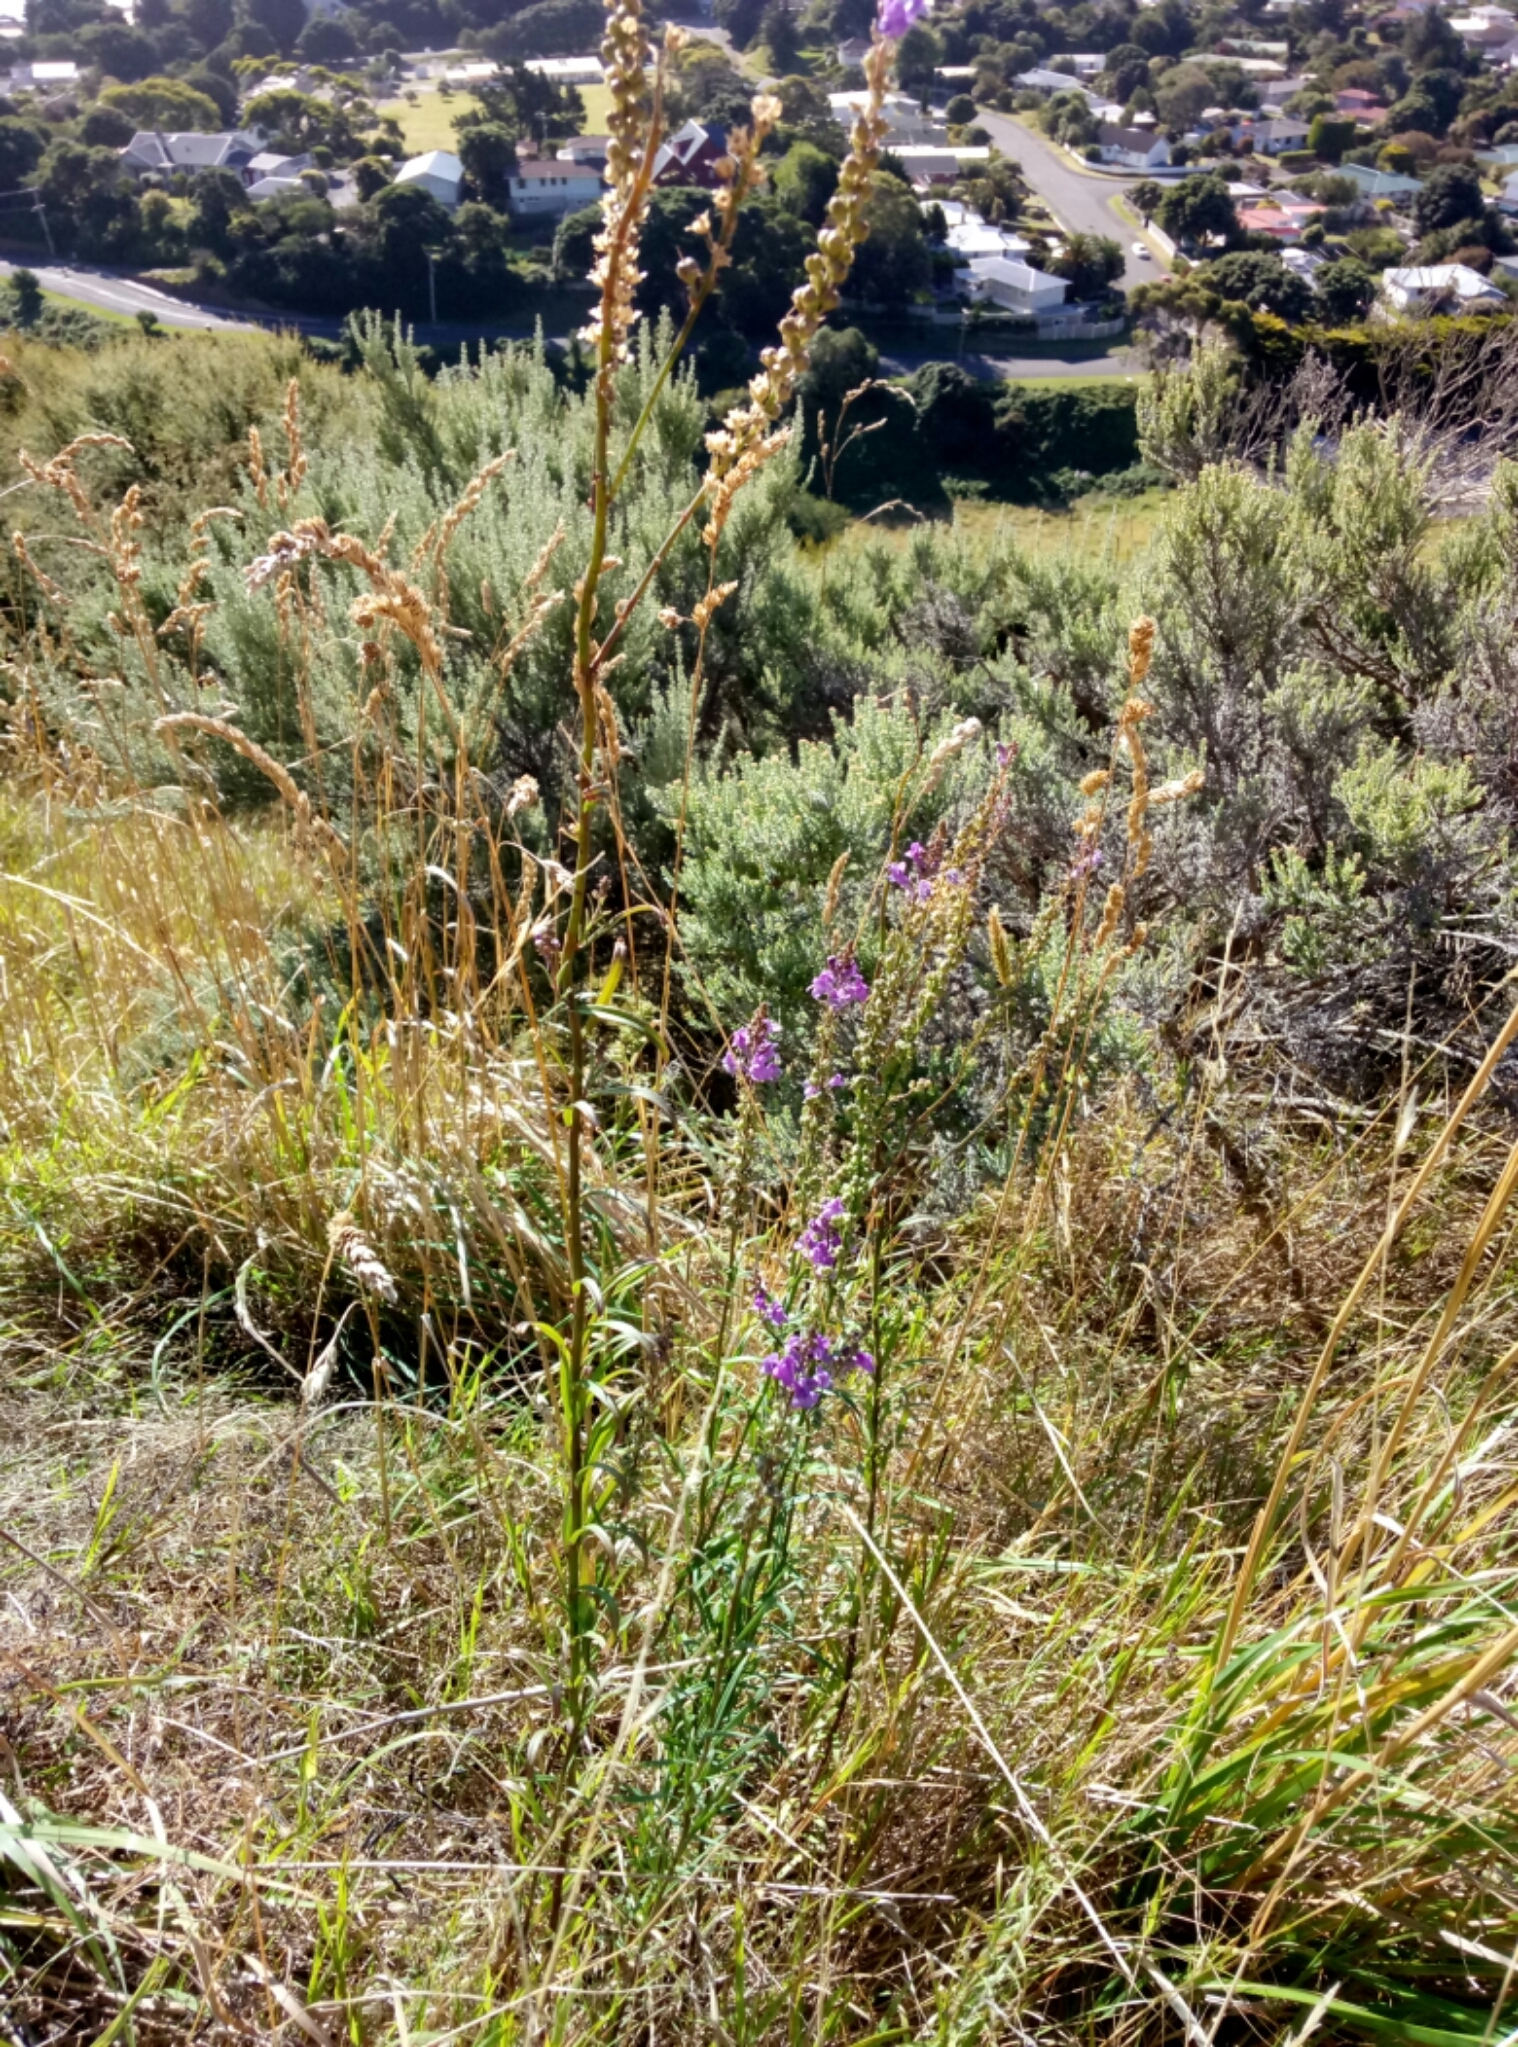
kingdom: Plantae
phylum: Tracheophyta
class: Magnoliopsida
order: Lamiales
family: Plantaginaceae
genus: Linaria
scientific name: Linaria purpurea
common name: Purple toadflax
